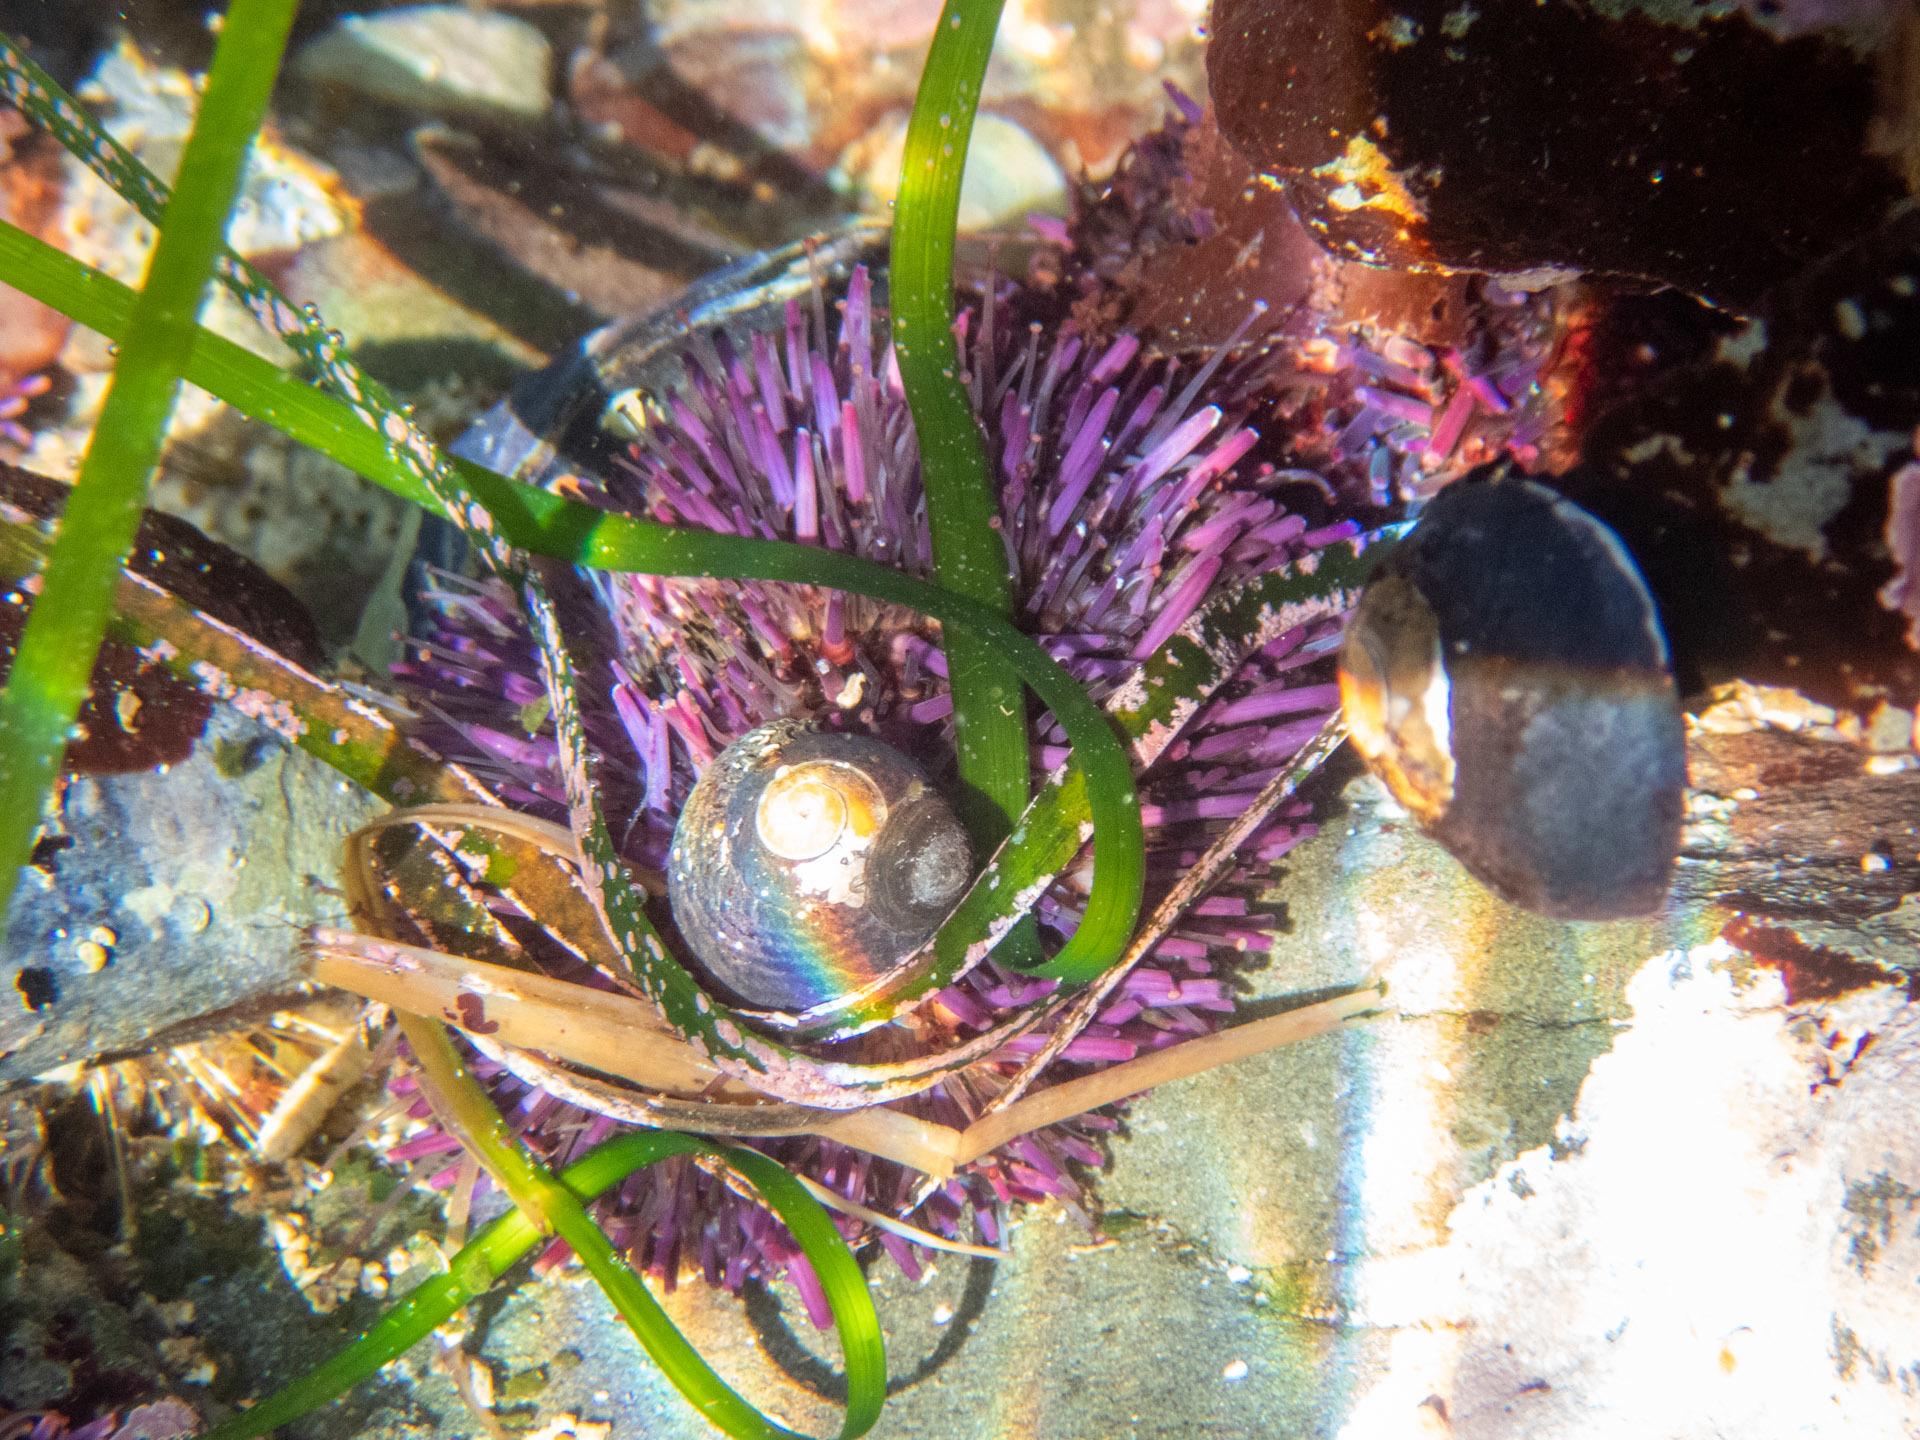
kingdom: Animalia
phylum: Echinodermata
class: Echinoidea
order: Camarodonta
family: Strongylocentrotidae
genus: Strongylocentrotus
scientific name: Strongylocentrotus purpuratus
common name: Purple sea urchin
